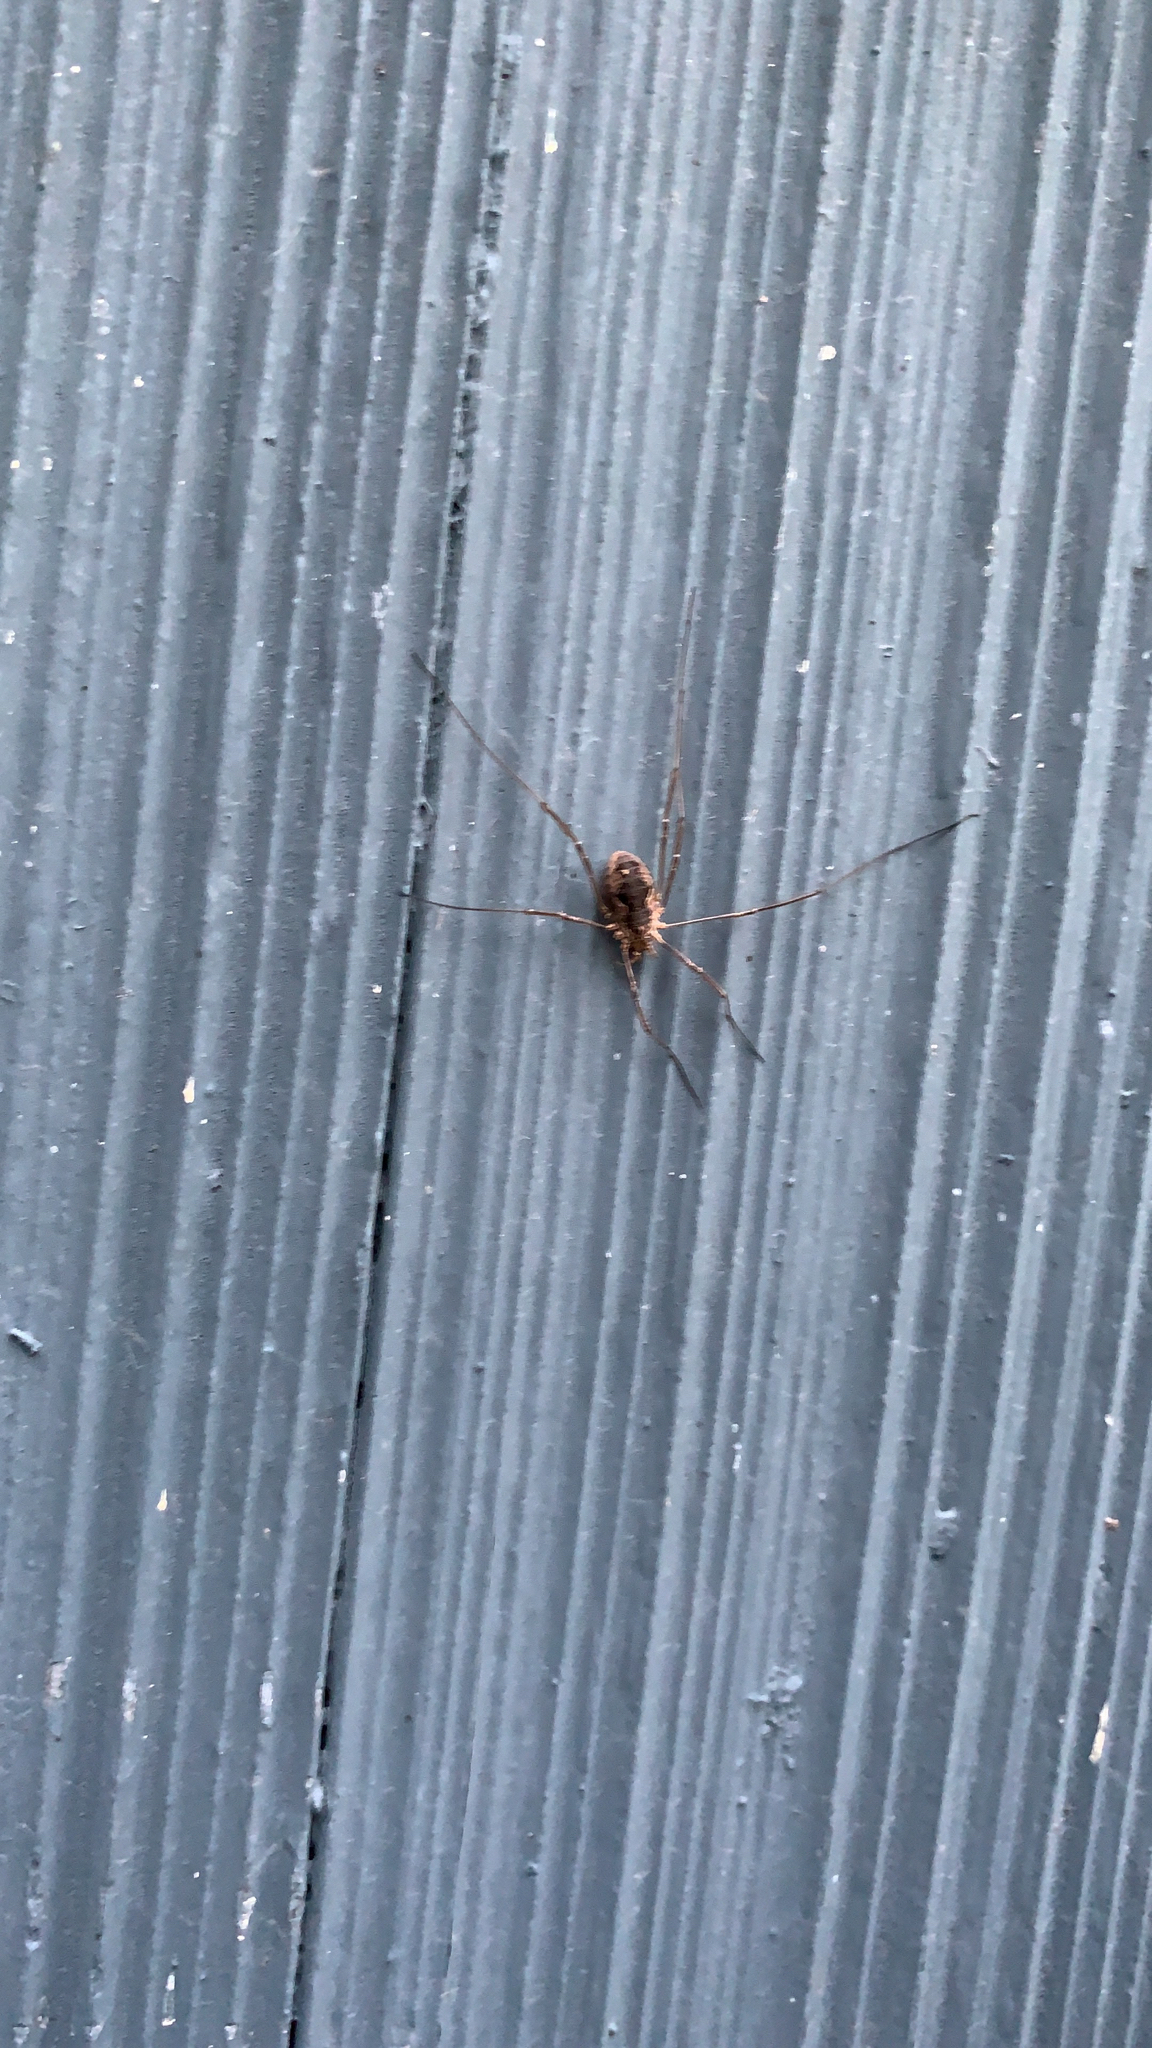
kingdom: Animalia
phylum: Arthropoda
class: Arachnida
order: Opiliones
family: Phalangiidae
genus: Phalangium
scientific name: Phalangium opilio
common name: Daddy longleg
